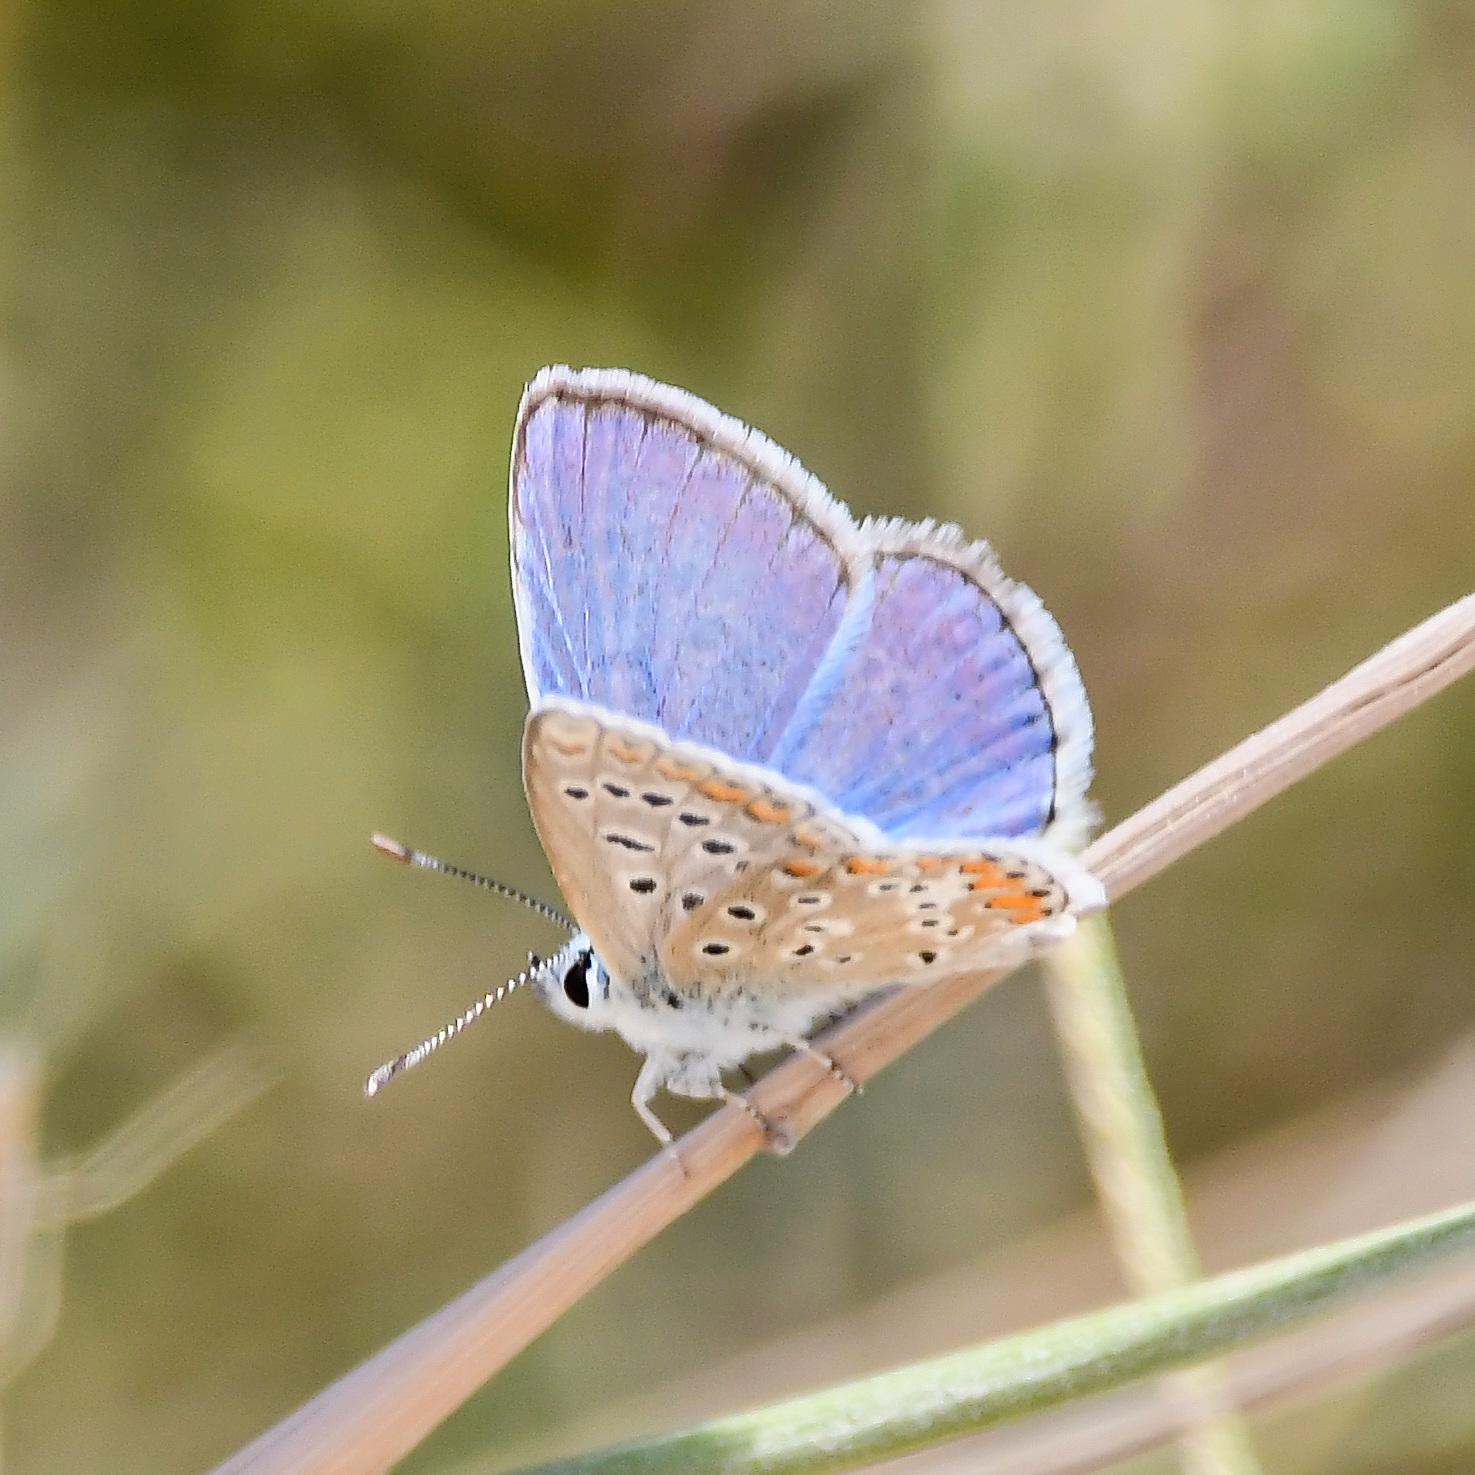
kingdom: Animalia
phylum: Arthropoda
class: Insecta
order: Lepidoptera
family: Lycaenidae
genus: Polyommatus
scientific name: Polyommatus celina
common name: Austaut's blue
